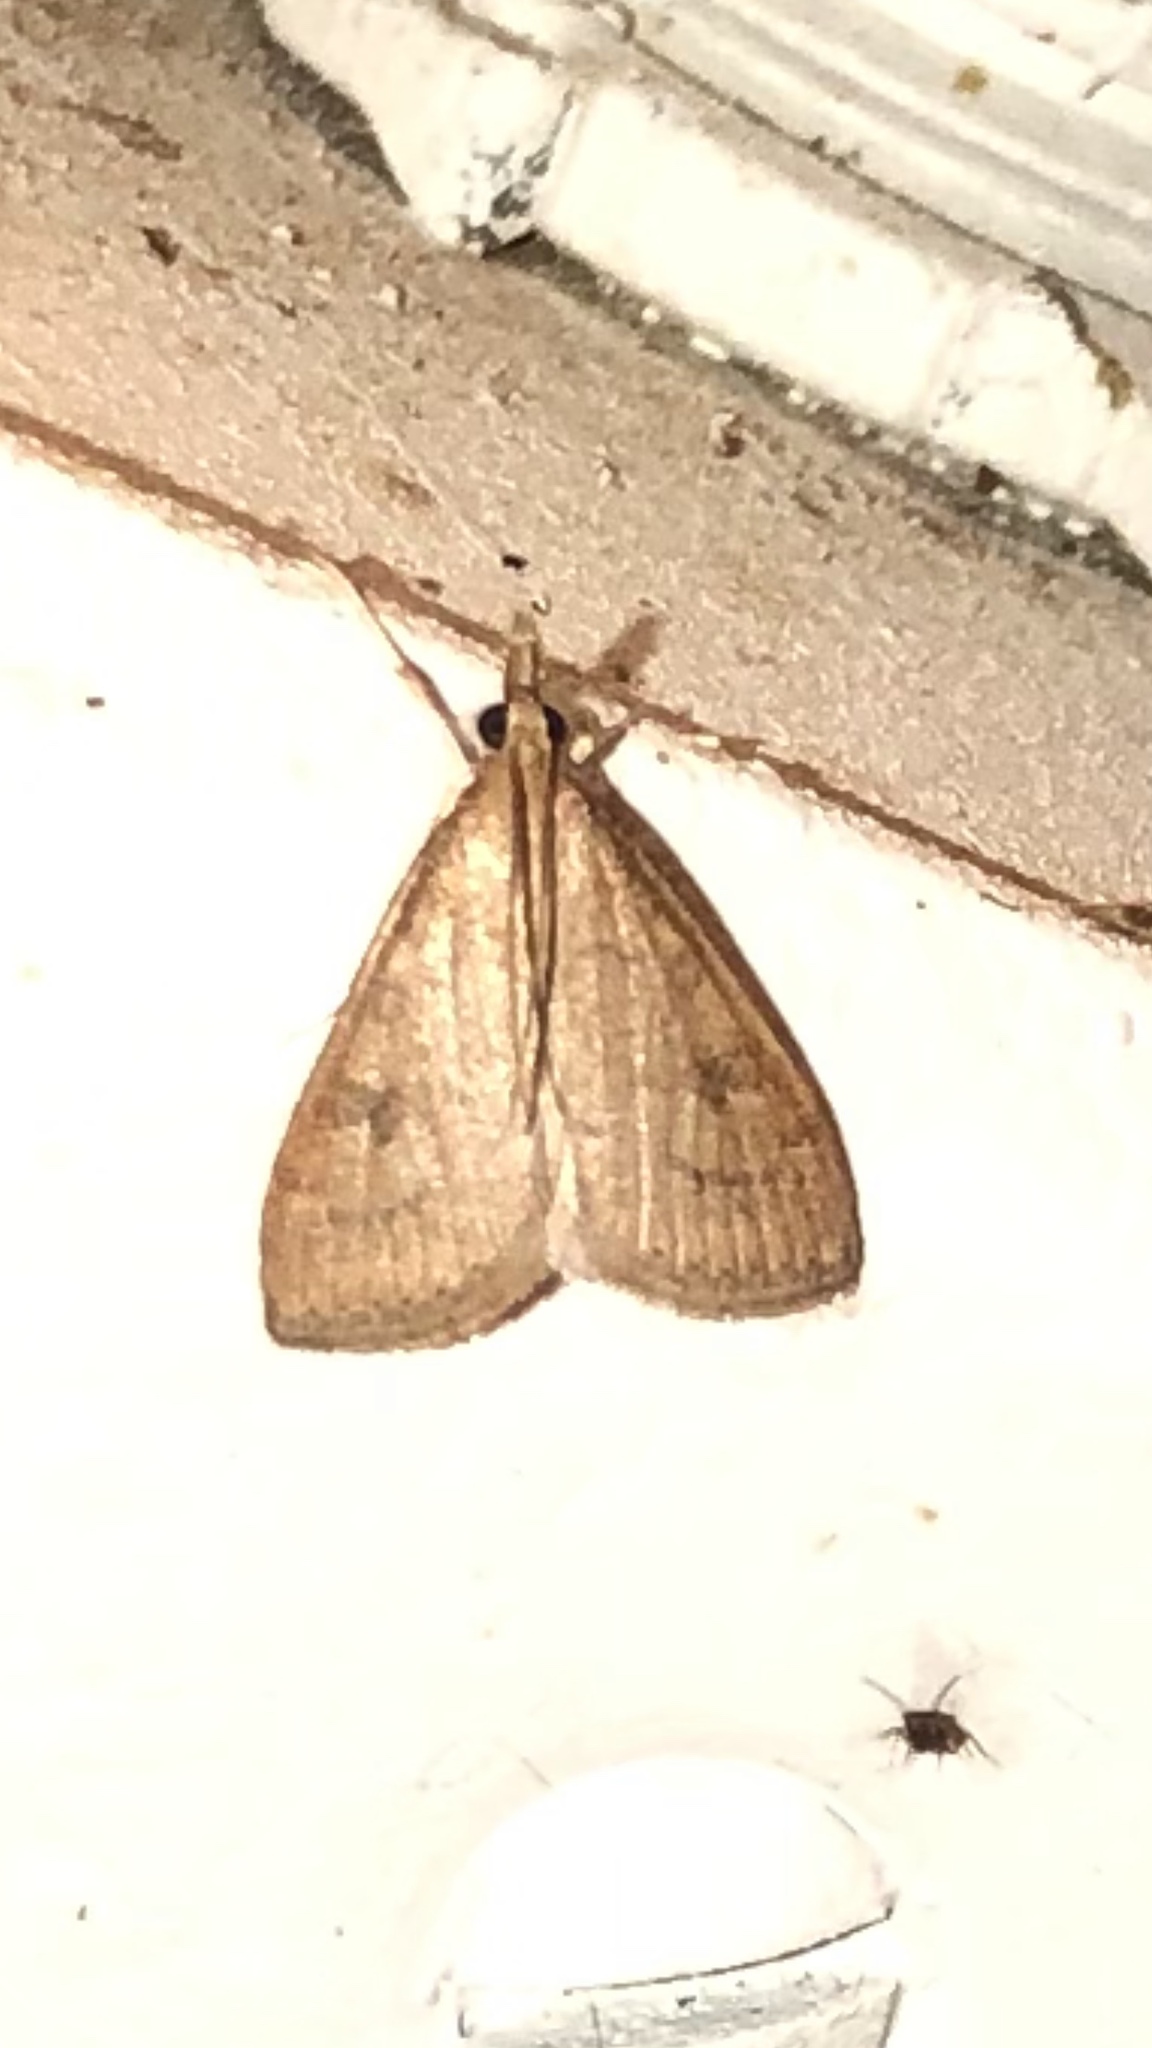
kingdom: Animalia
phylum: Arthropoda
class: Insecta
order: Lepidoptera
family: Crambidae
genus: Udea
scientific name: Udea rubigalis
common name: Celery leaftier moth
